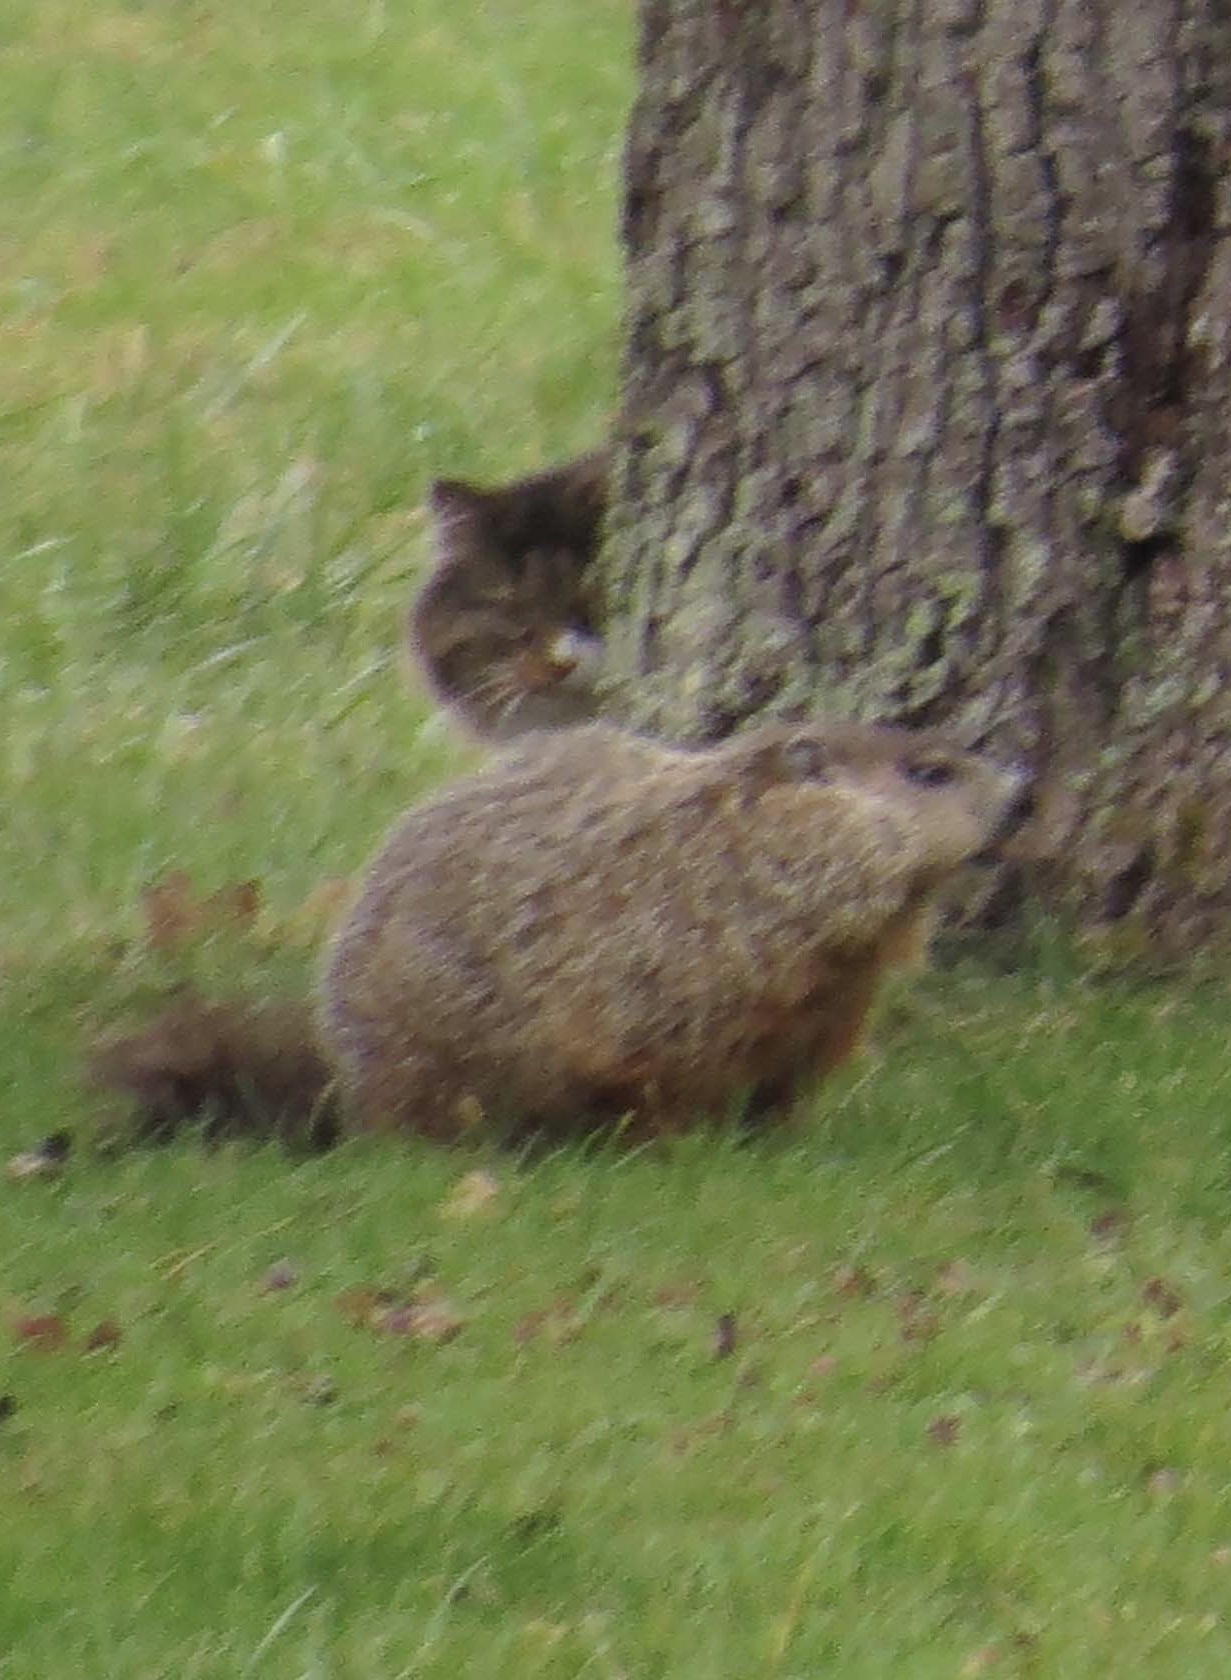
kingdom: Animalia
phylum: Chordata
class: Mammalia
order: Rodentia
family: Sciuridae
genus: Marmota
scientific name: Marmota monax
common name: Groundhog
